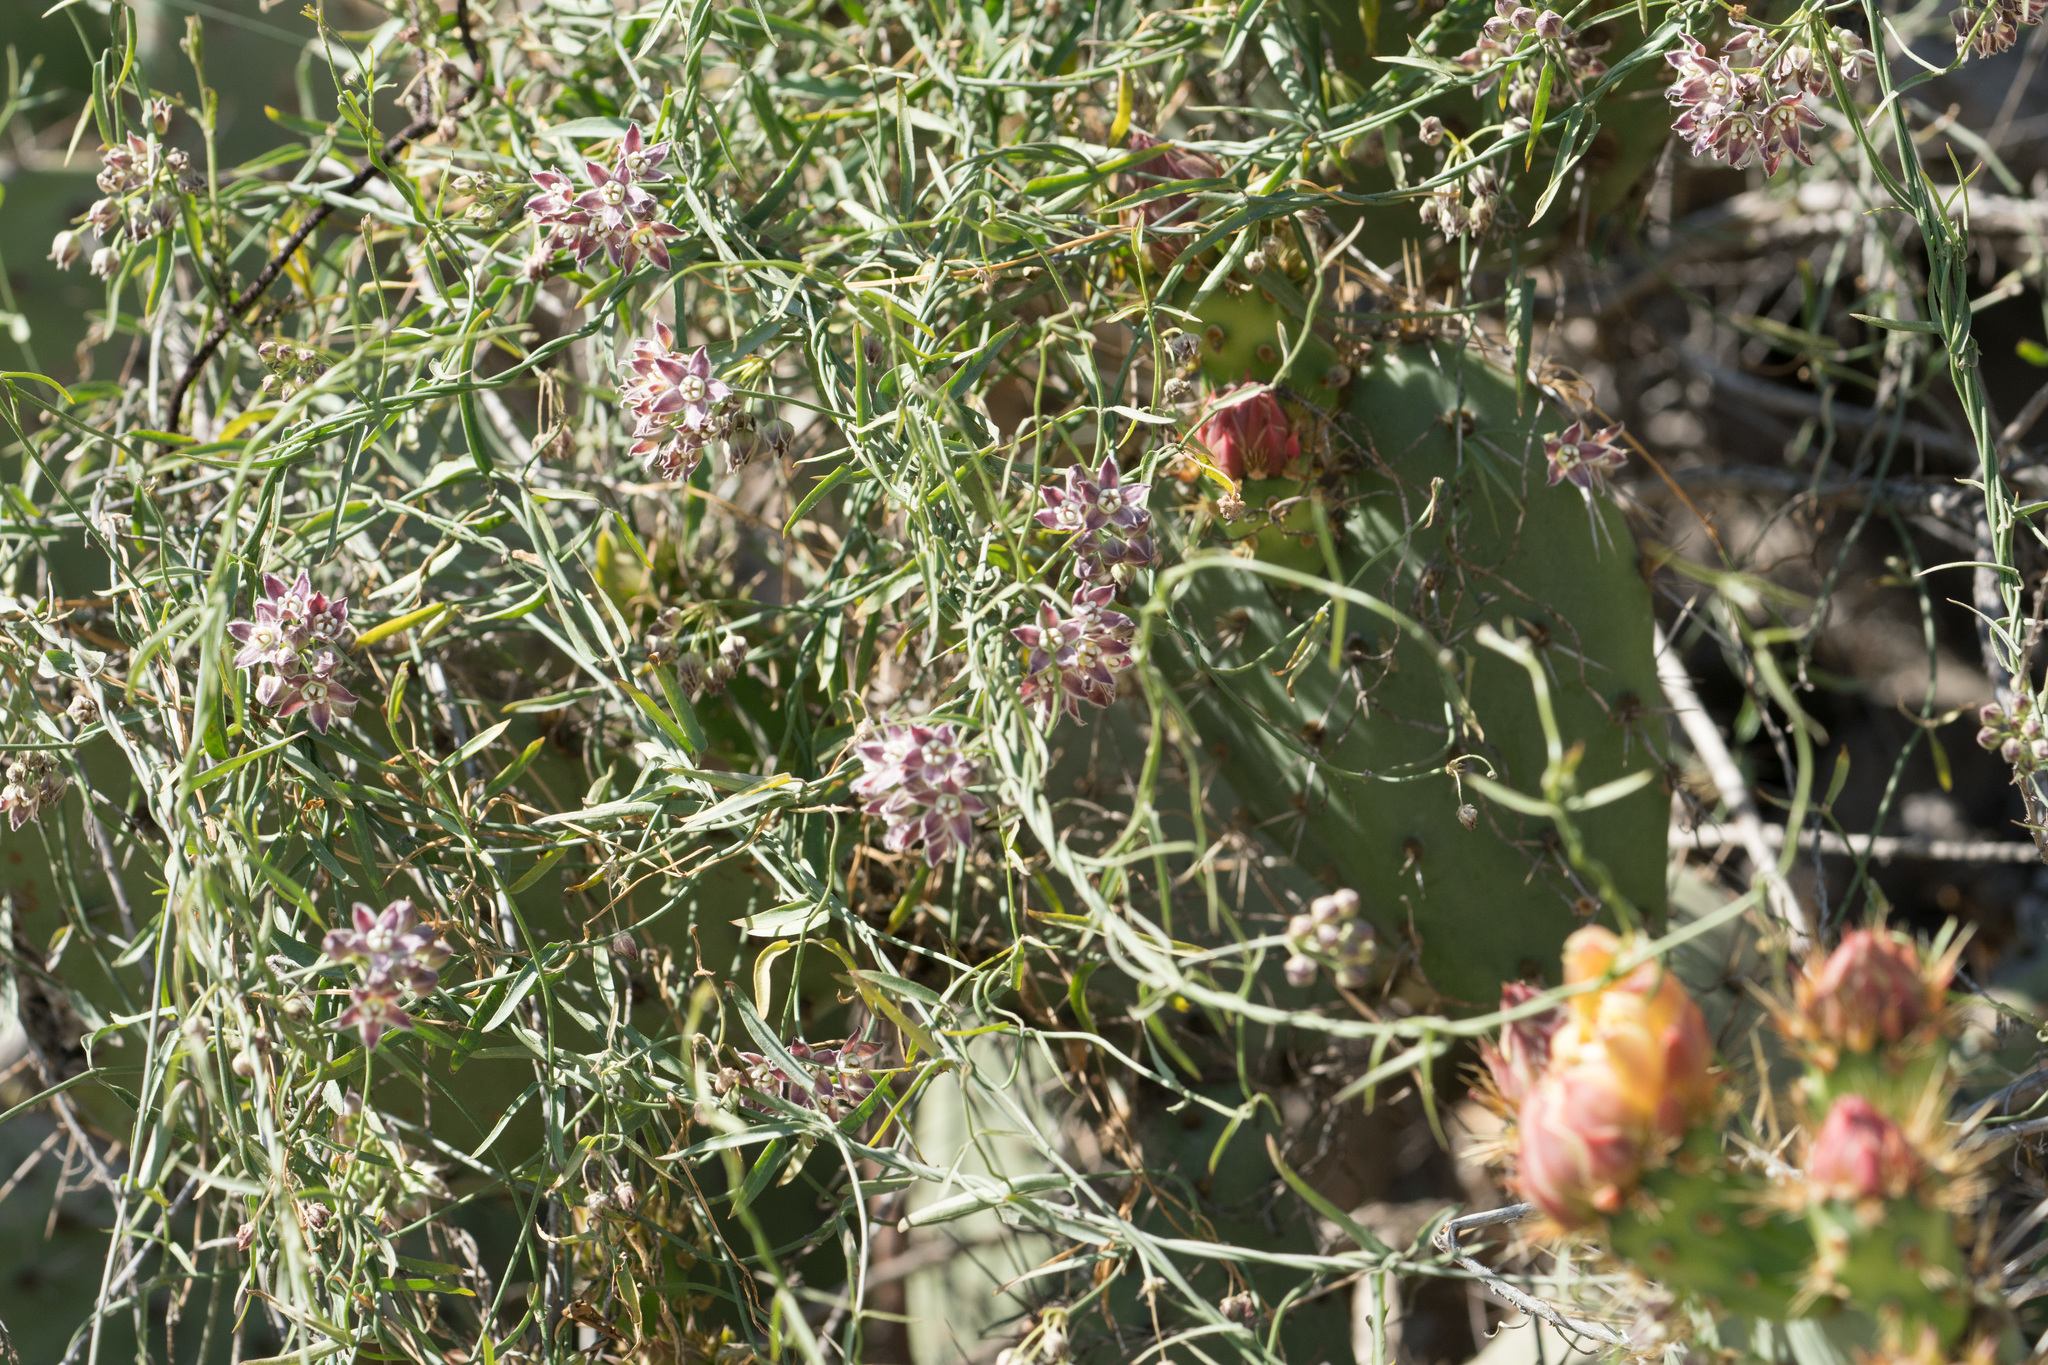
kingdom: Plantae
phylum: Tracheophyta
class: Magnoliopsida
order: Gentianales
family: Apocynaceae
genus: Funastrum
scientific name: Funastrum heterophyllum
